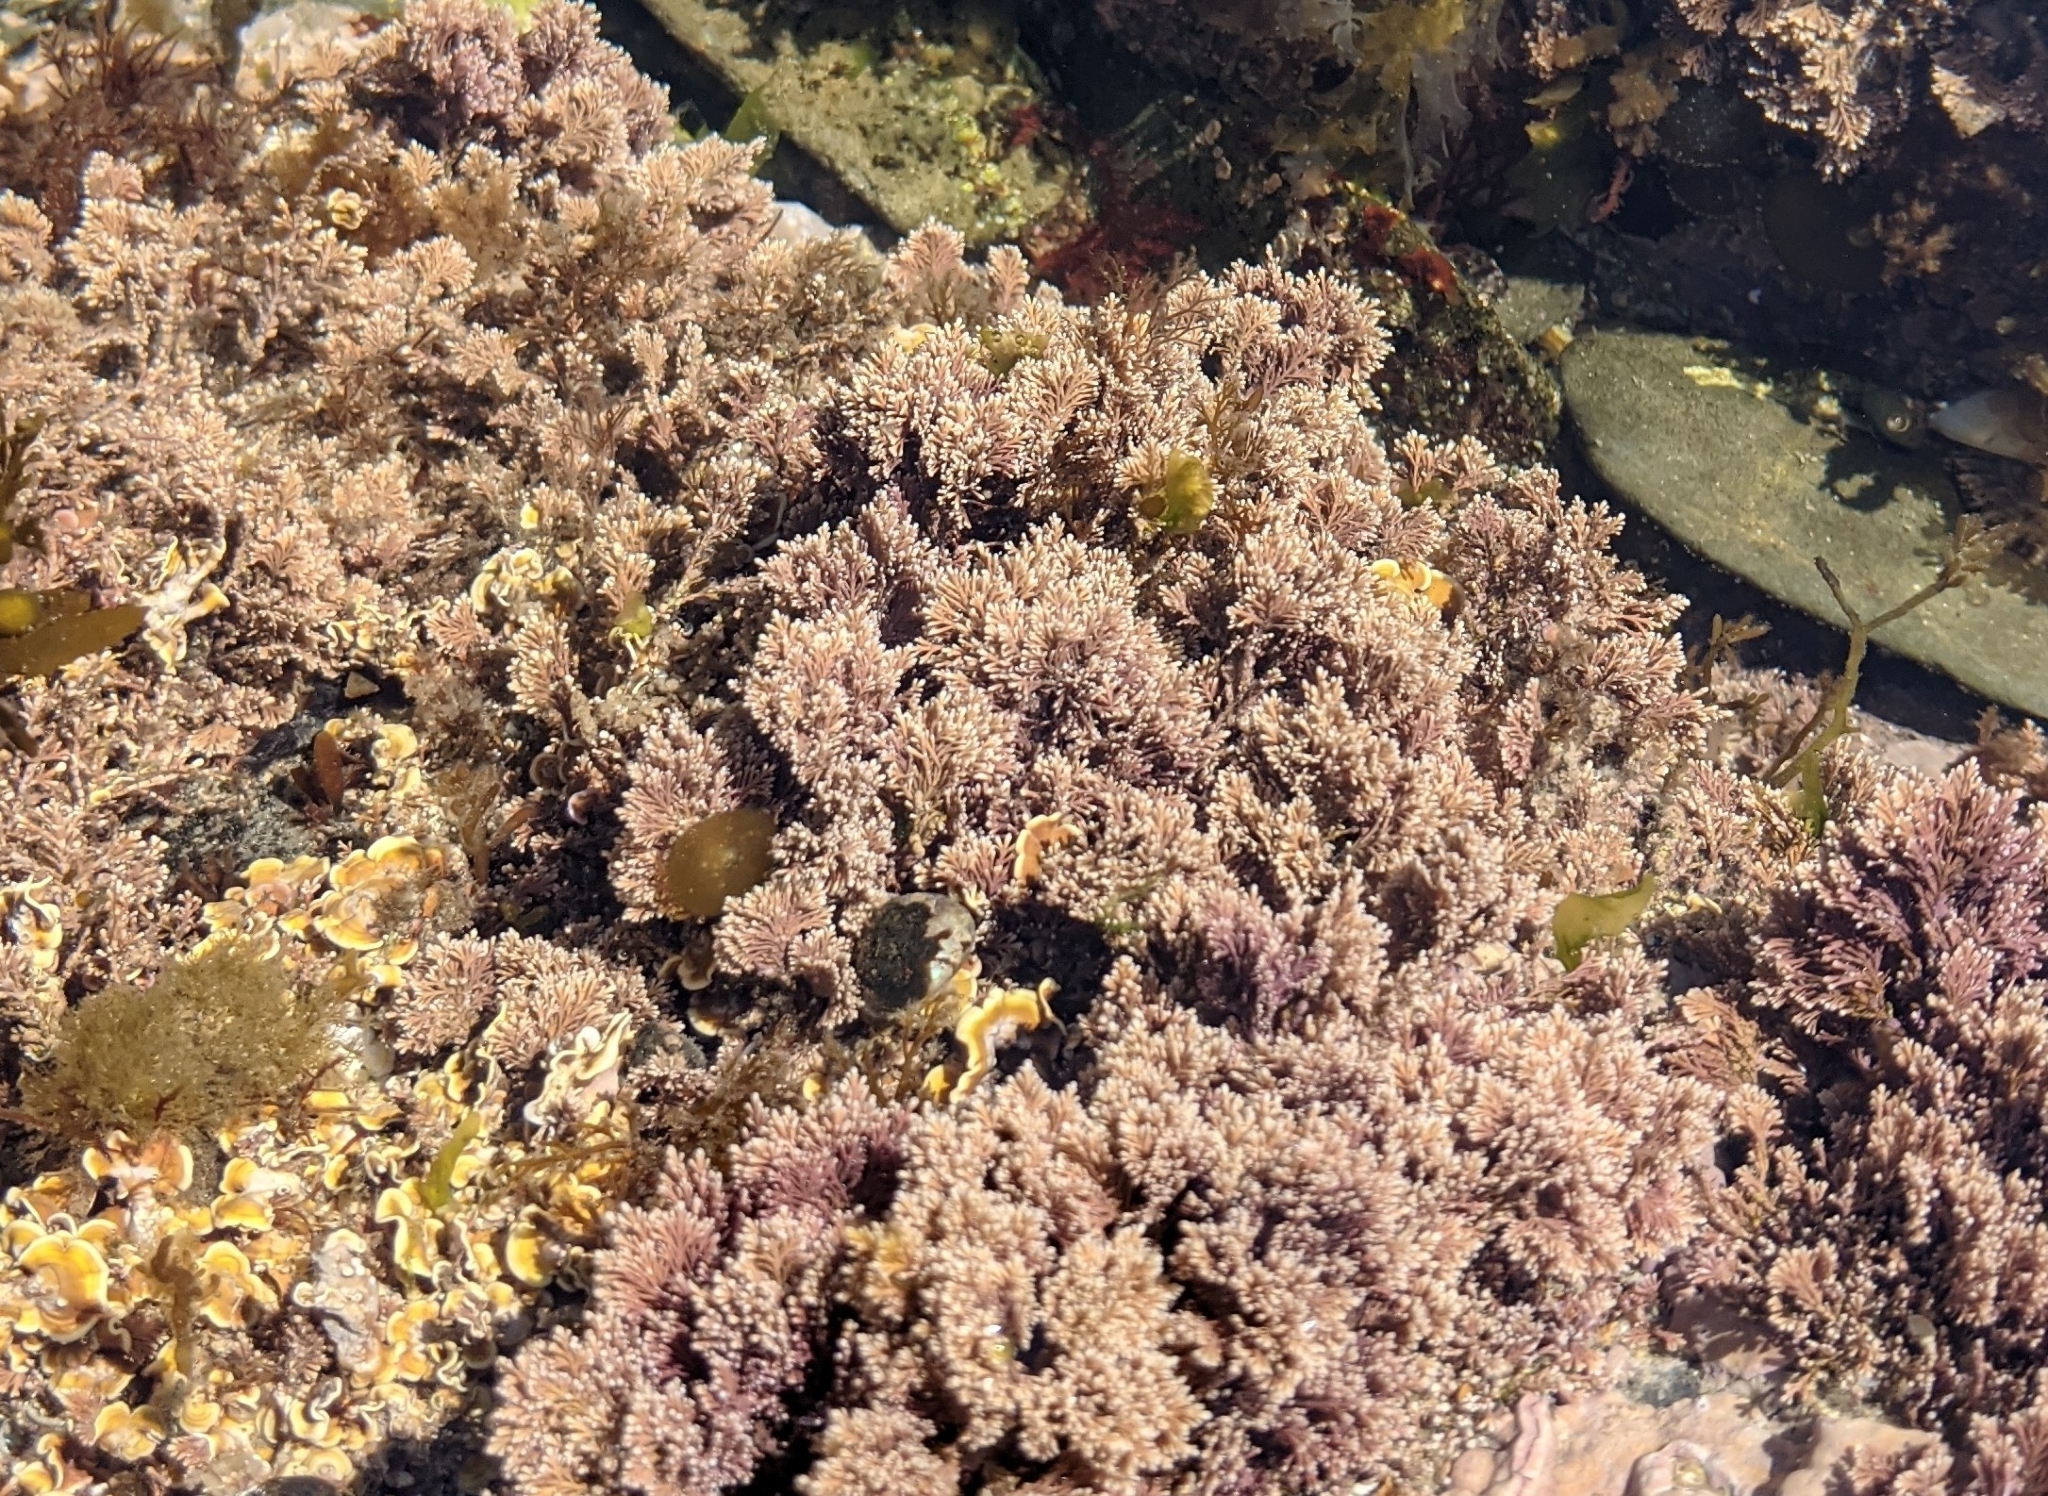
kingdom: Plantae
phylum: Rhodophyta
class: Florideophyceae
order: Corallinales
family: Corallinaceae
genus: Corallina
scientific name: Corallina officinalis
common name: Coral weed
